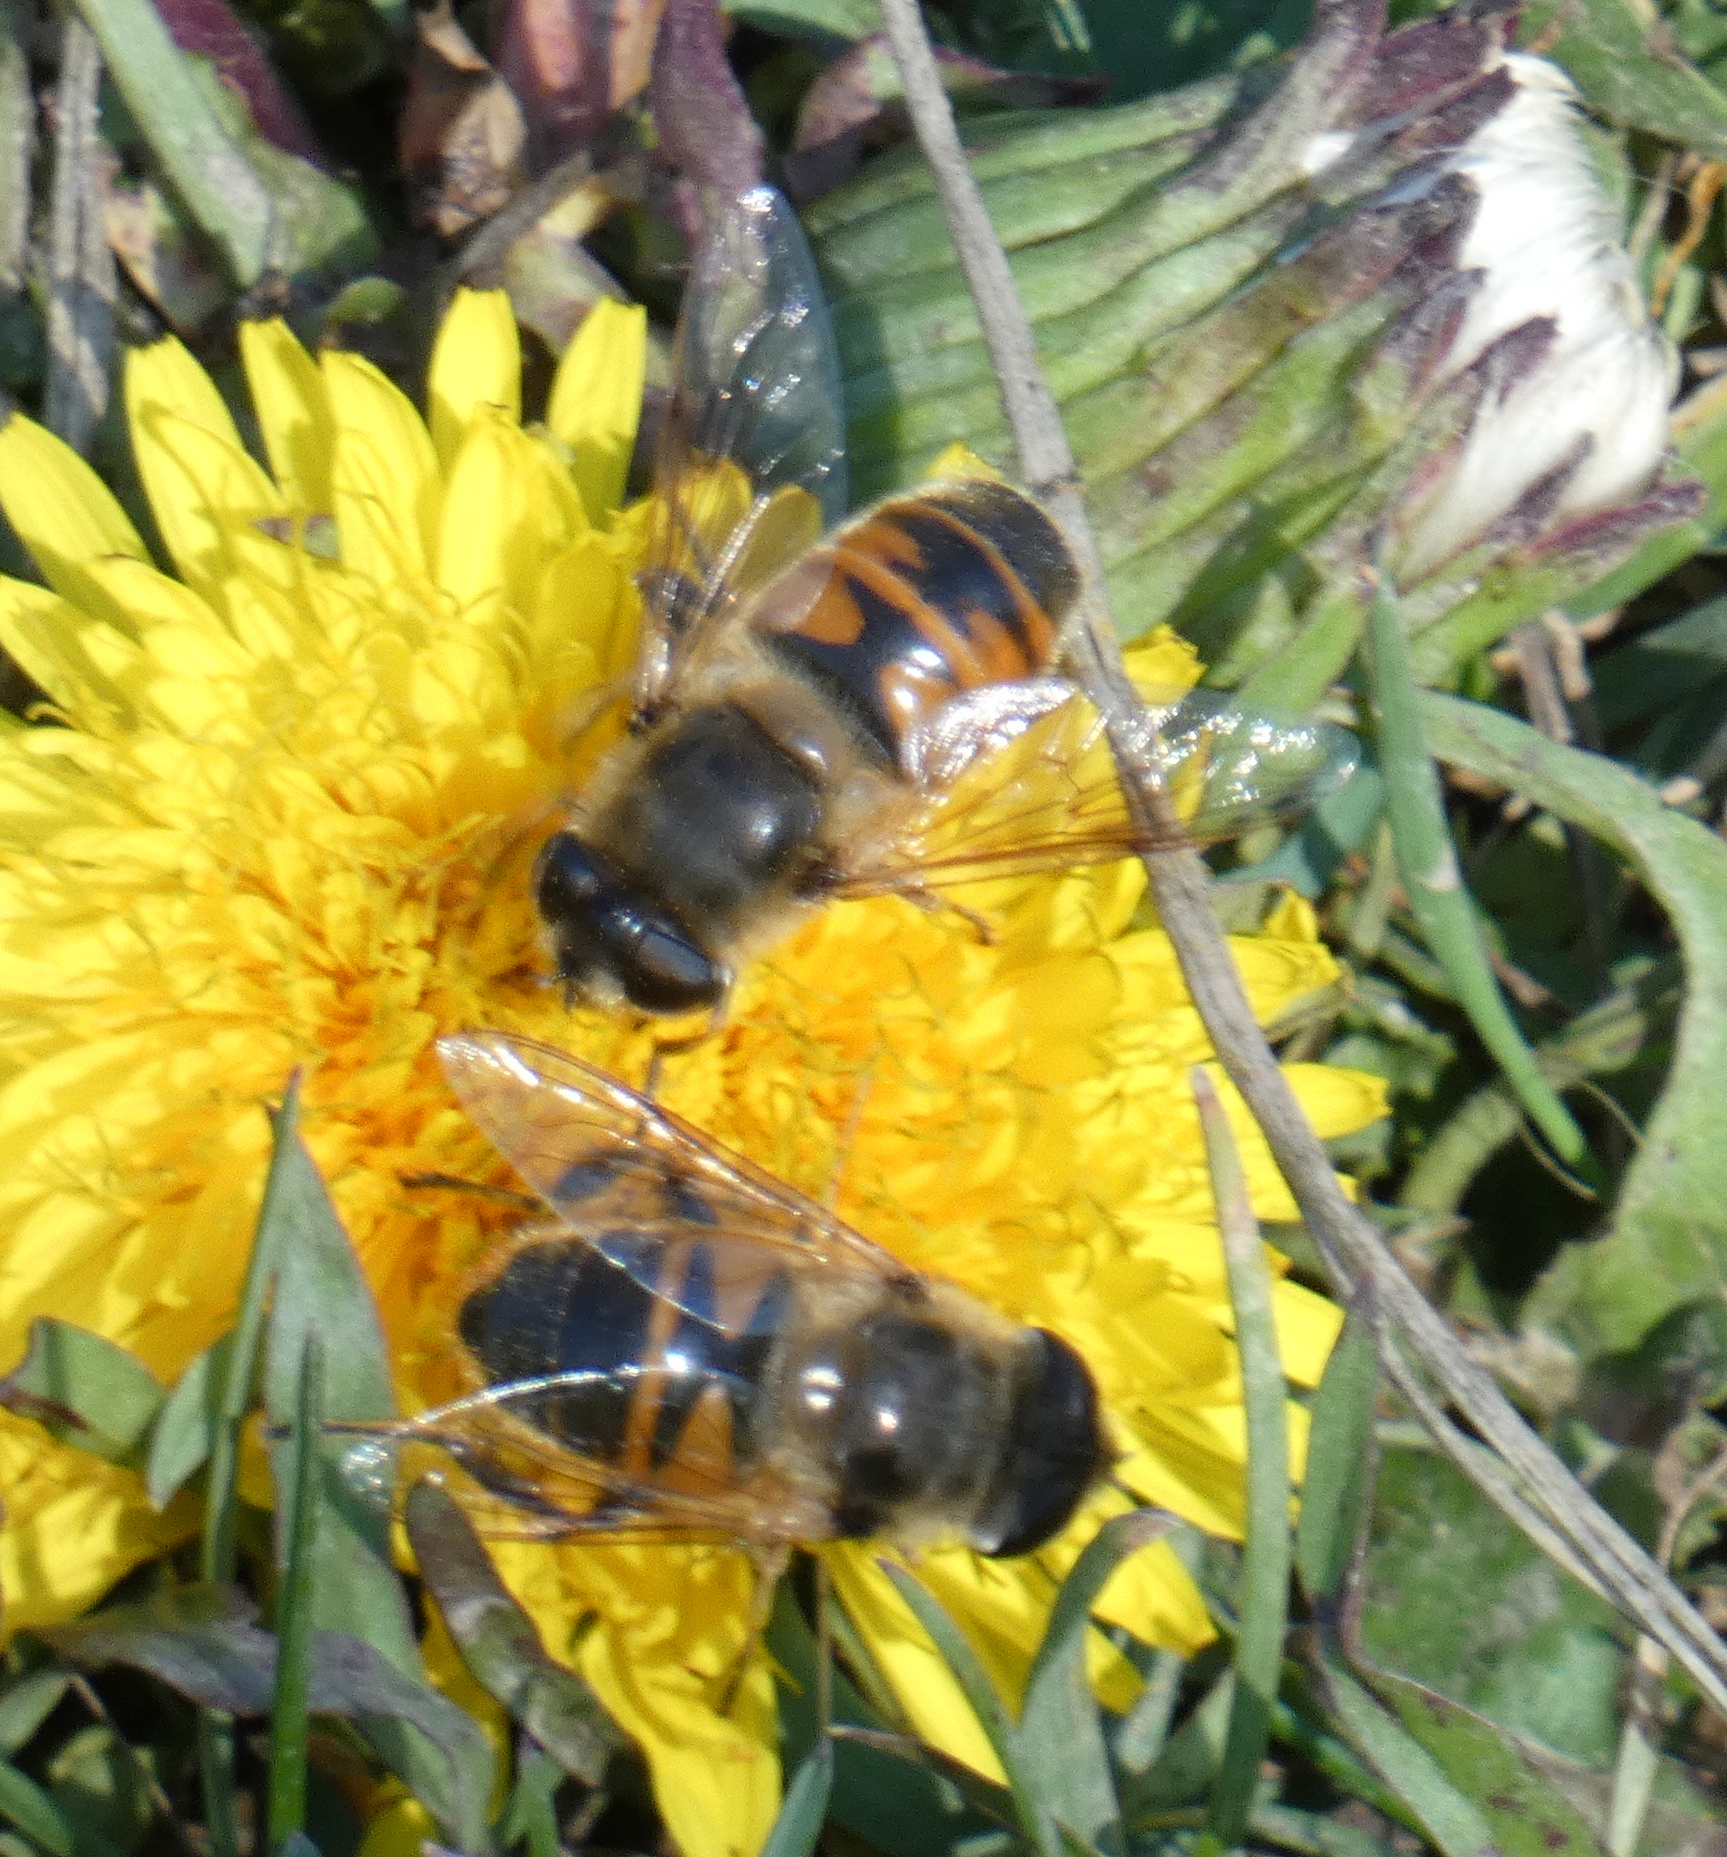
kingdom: Animalia
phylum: Arthropoda
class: Insecta
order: Diptera
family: Syrphidae
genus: Eristalis
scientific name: Eristalis tenax
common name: Drone fly
